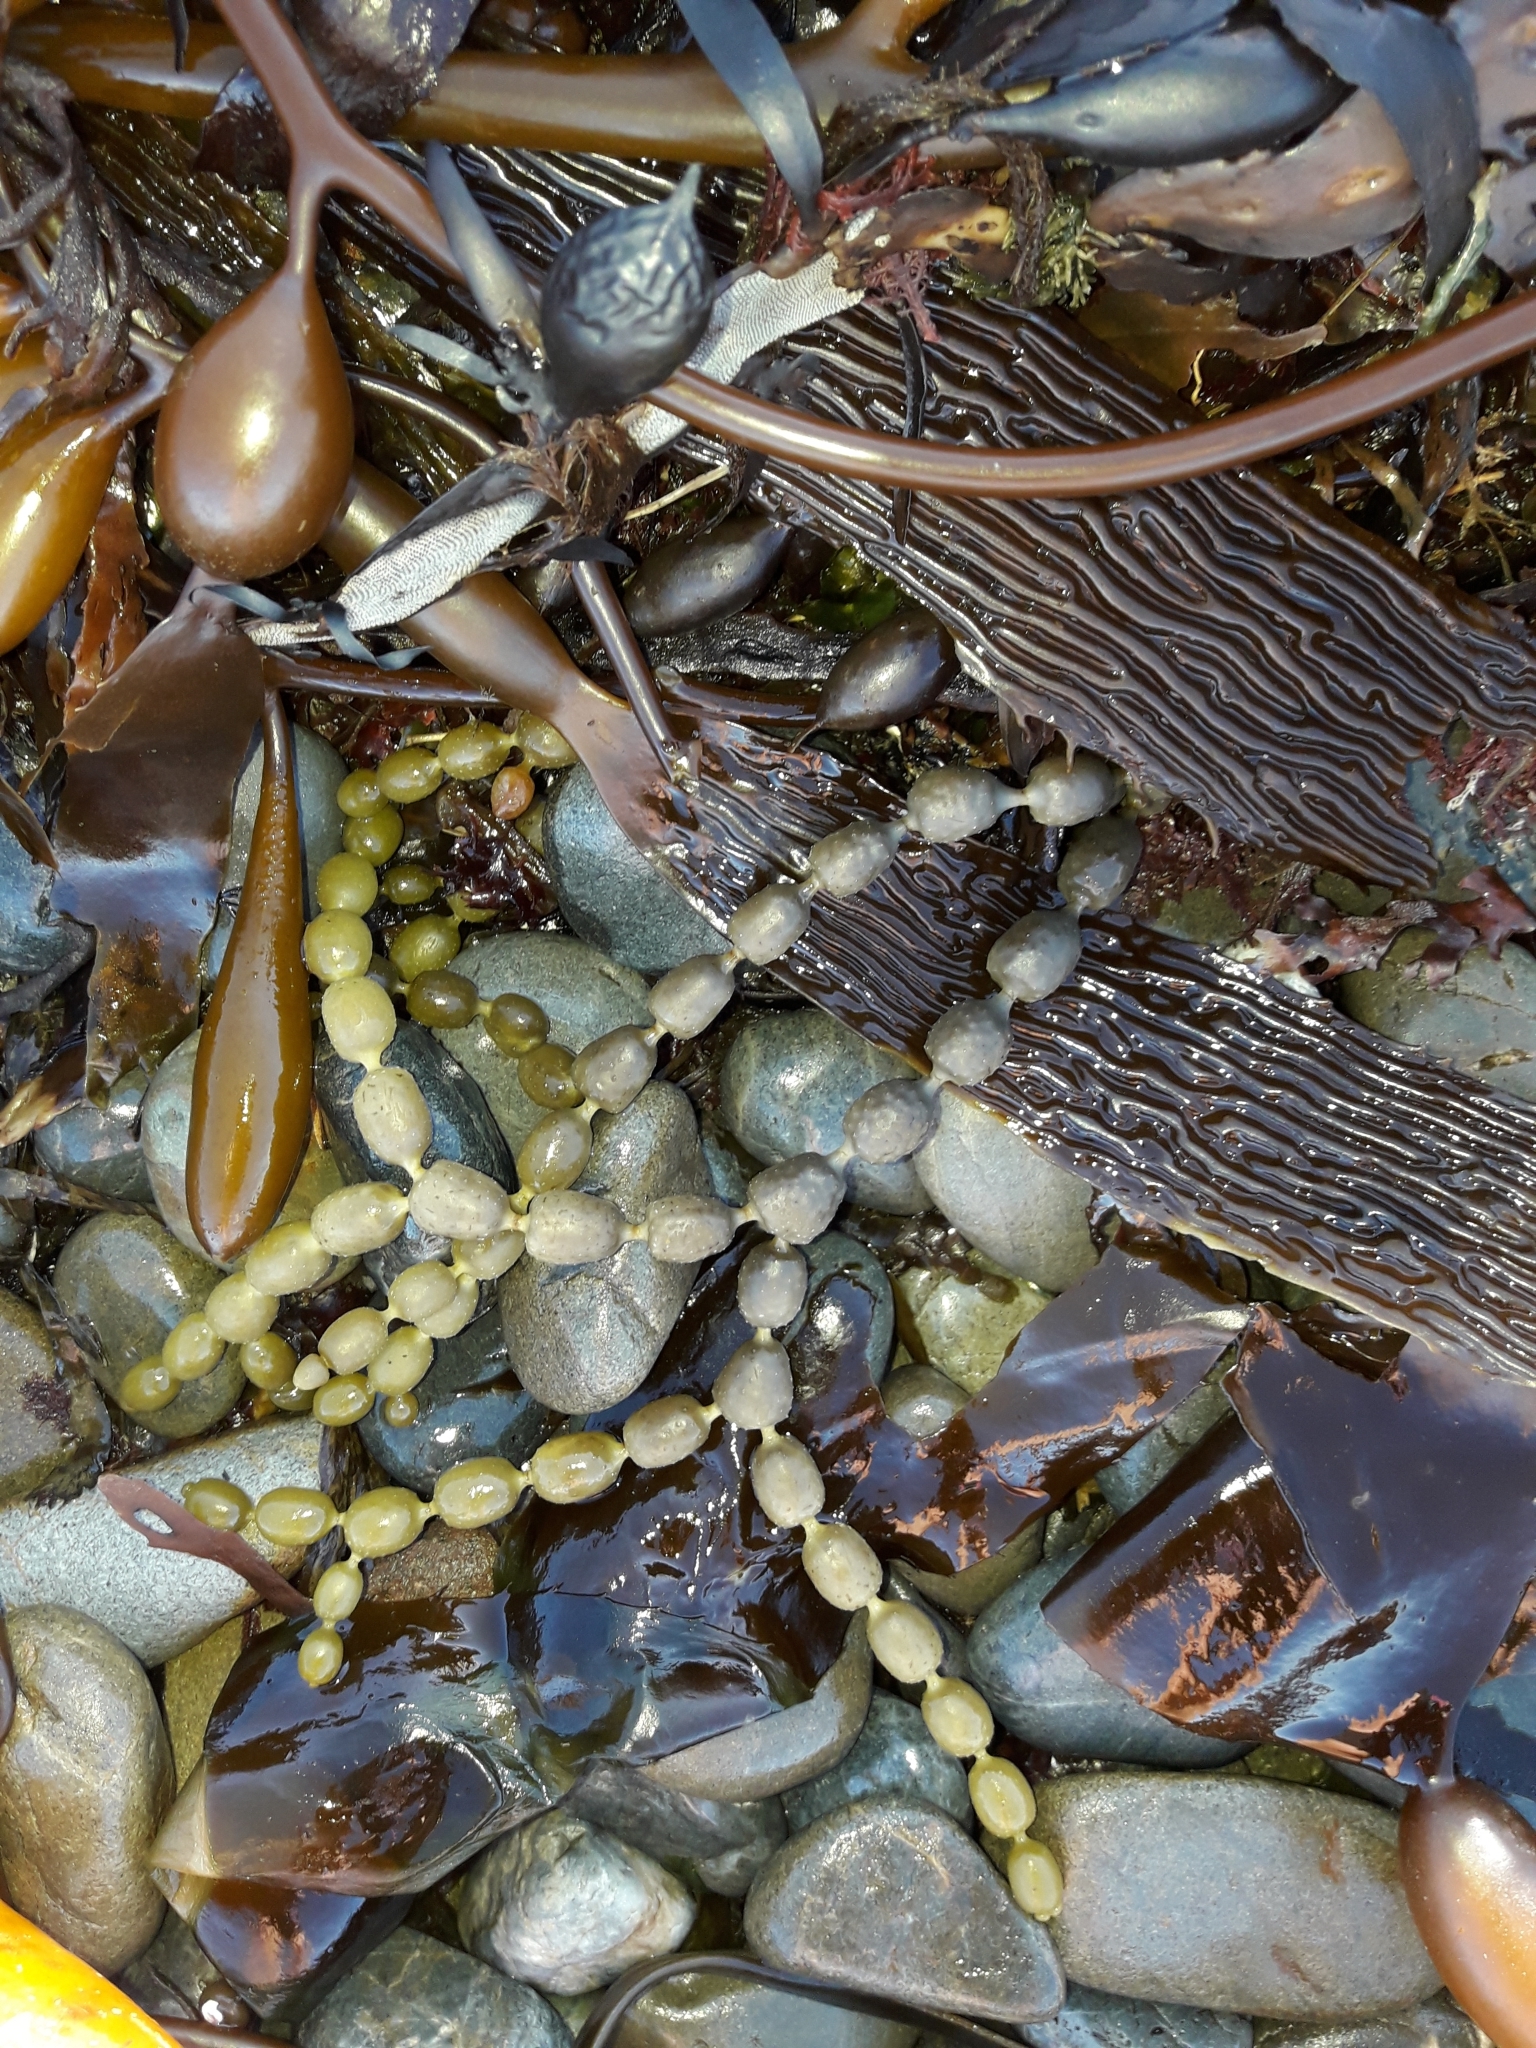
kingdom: Chromista
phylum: Ochrophyta
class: Phaeophyceae
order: Fucales
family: Hormosiraceae
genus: Hormosira
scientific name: Hormosira banksii
